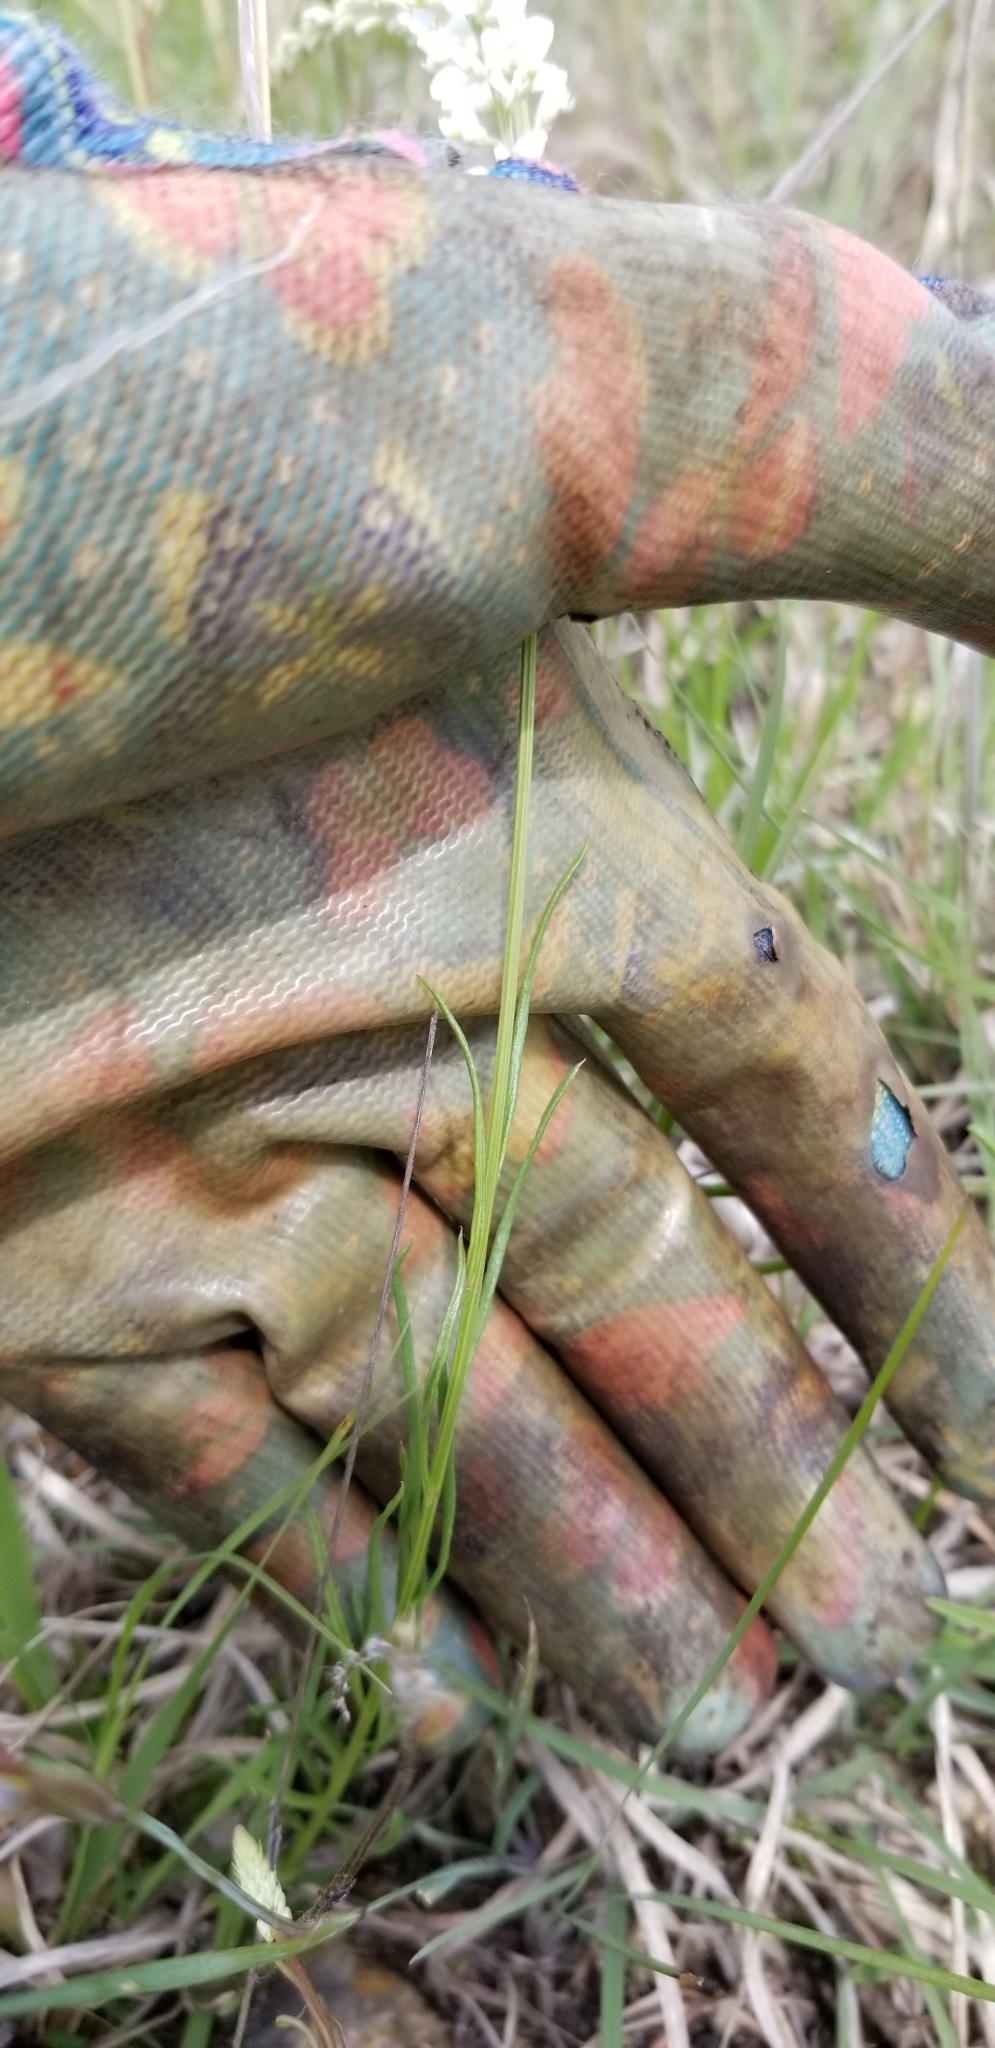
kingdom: Plantae
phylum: Tracheophyta
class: Magnoliopsida
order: Fabales
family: Polygalaceae
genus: Polygala
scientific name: Polygala alba
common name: White milkwort
